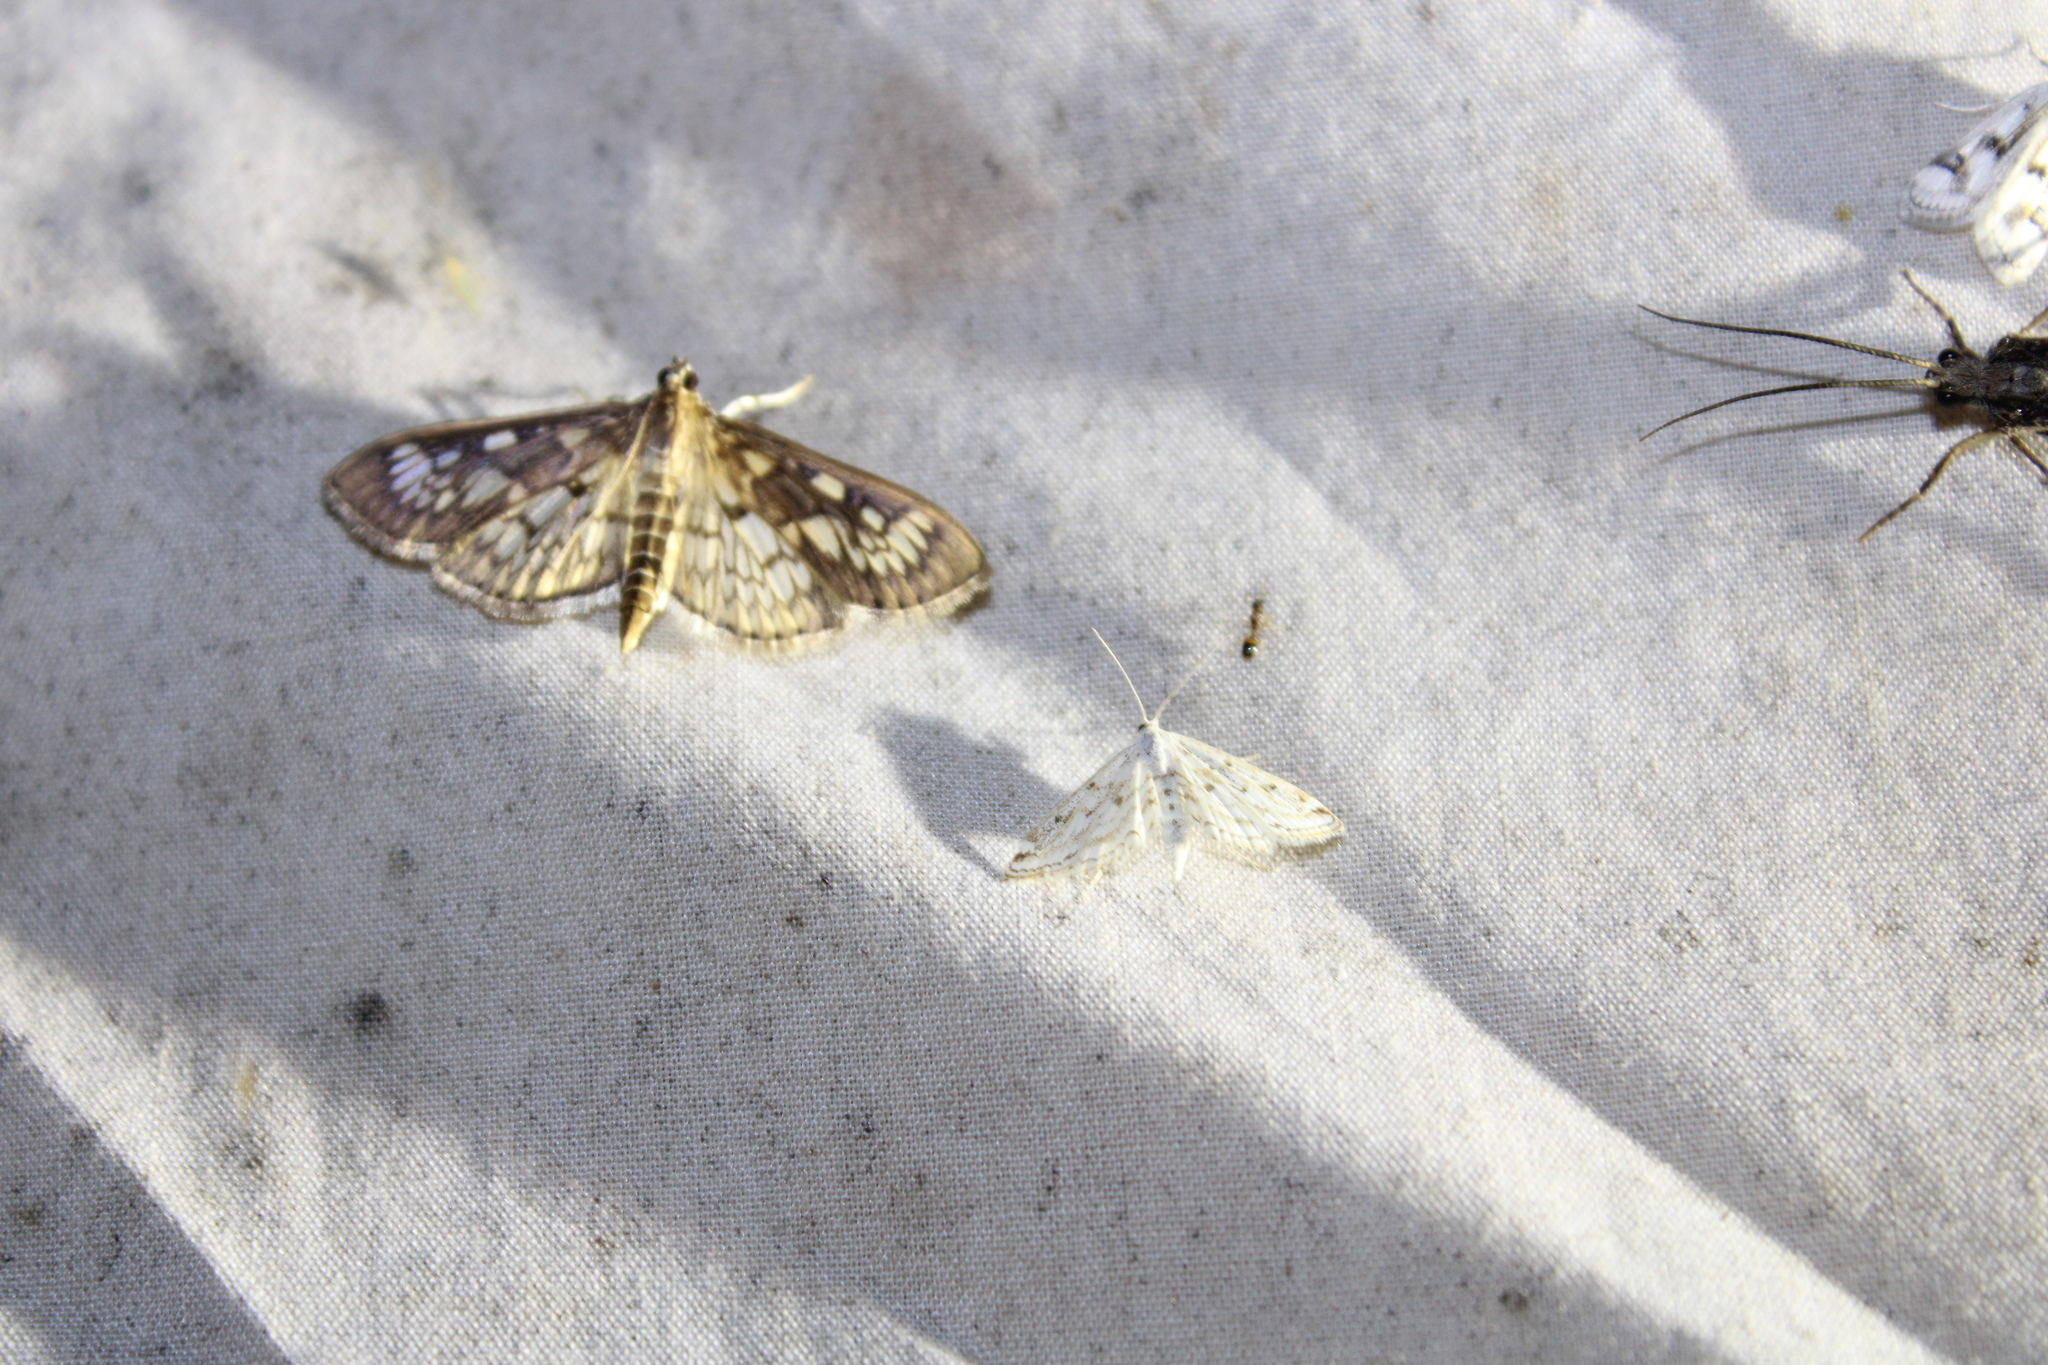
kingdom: Animalia
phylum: Arthropoda
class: Insecta
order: Lepidoptera
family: Crambidae
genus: Herpetogramma
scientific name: Herpetogramma thestealis
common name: Zigzag herpetogramma moth
